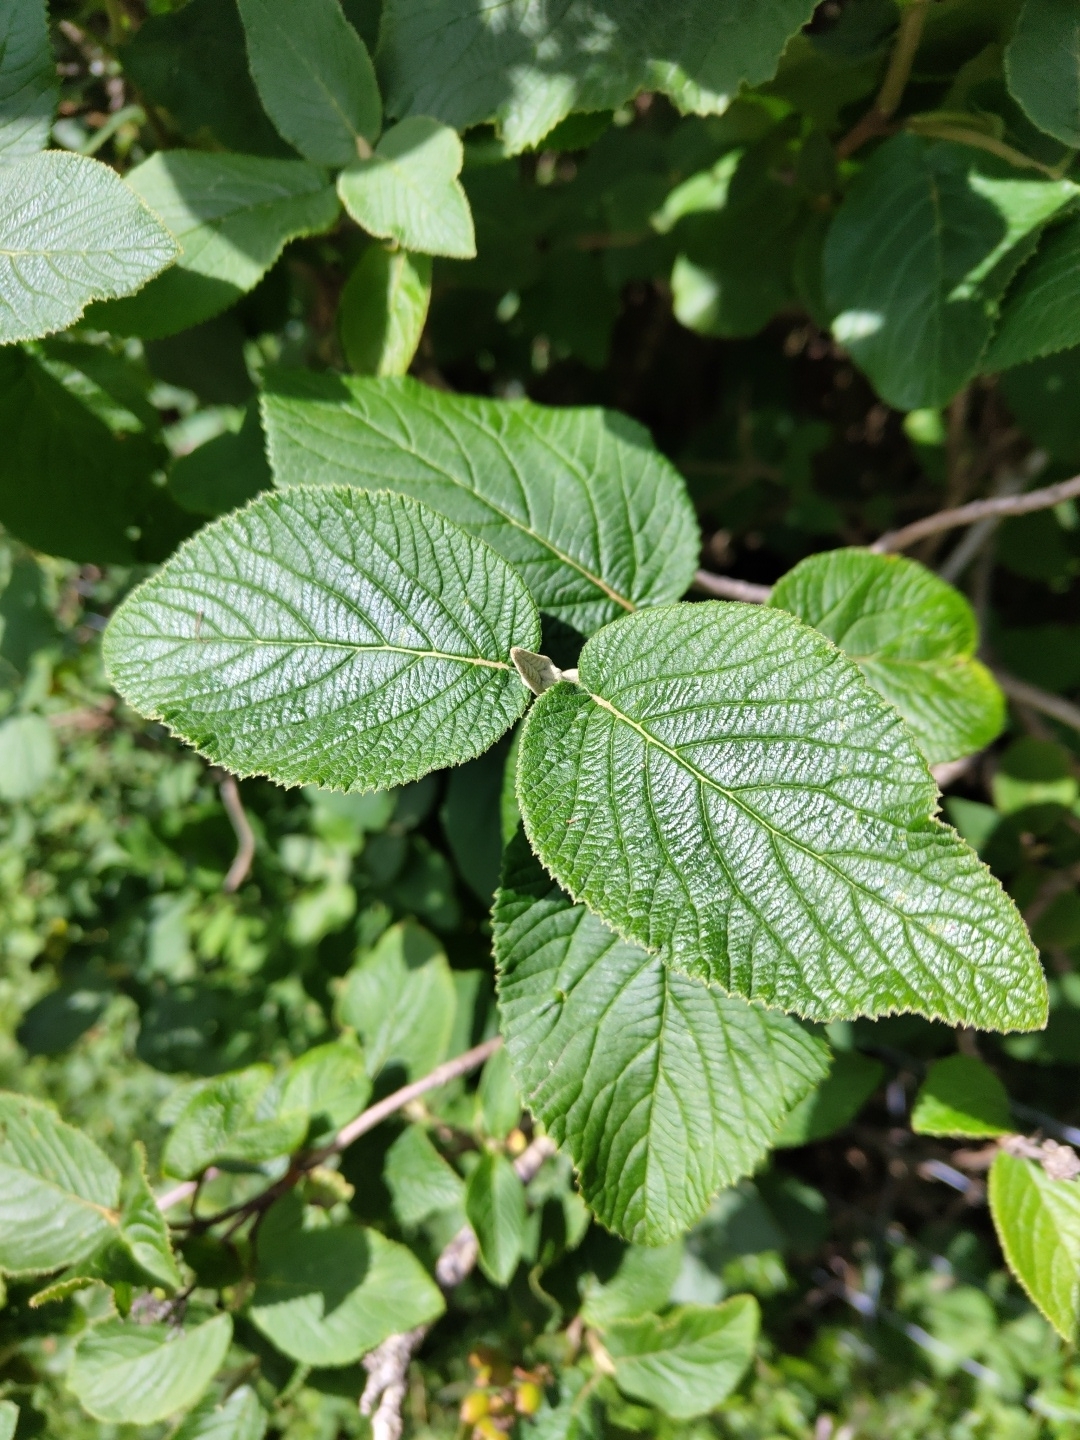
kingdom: Plantae
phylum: Tracheophyta
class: Magnoliopsida
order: Dipsacales
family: Viburnaceae
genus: Viburnum
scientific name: Viburnum lantana
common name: Wayfaring tree
